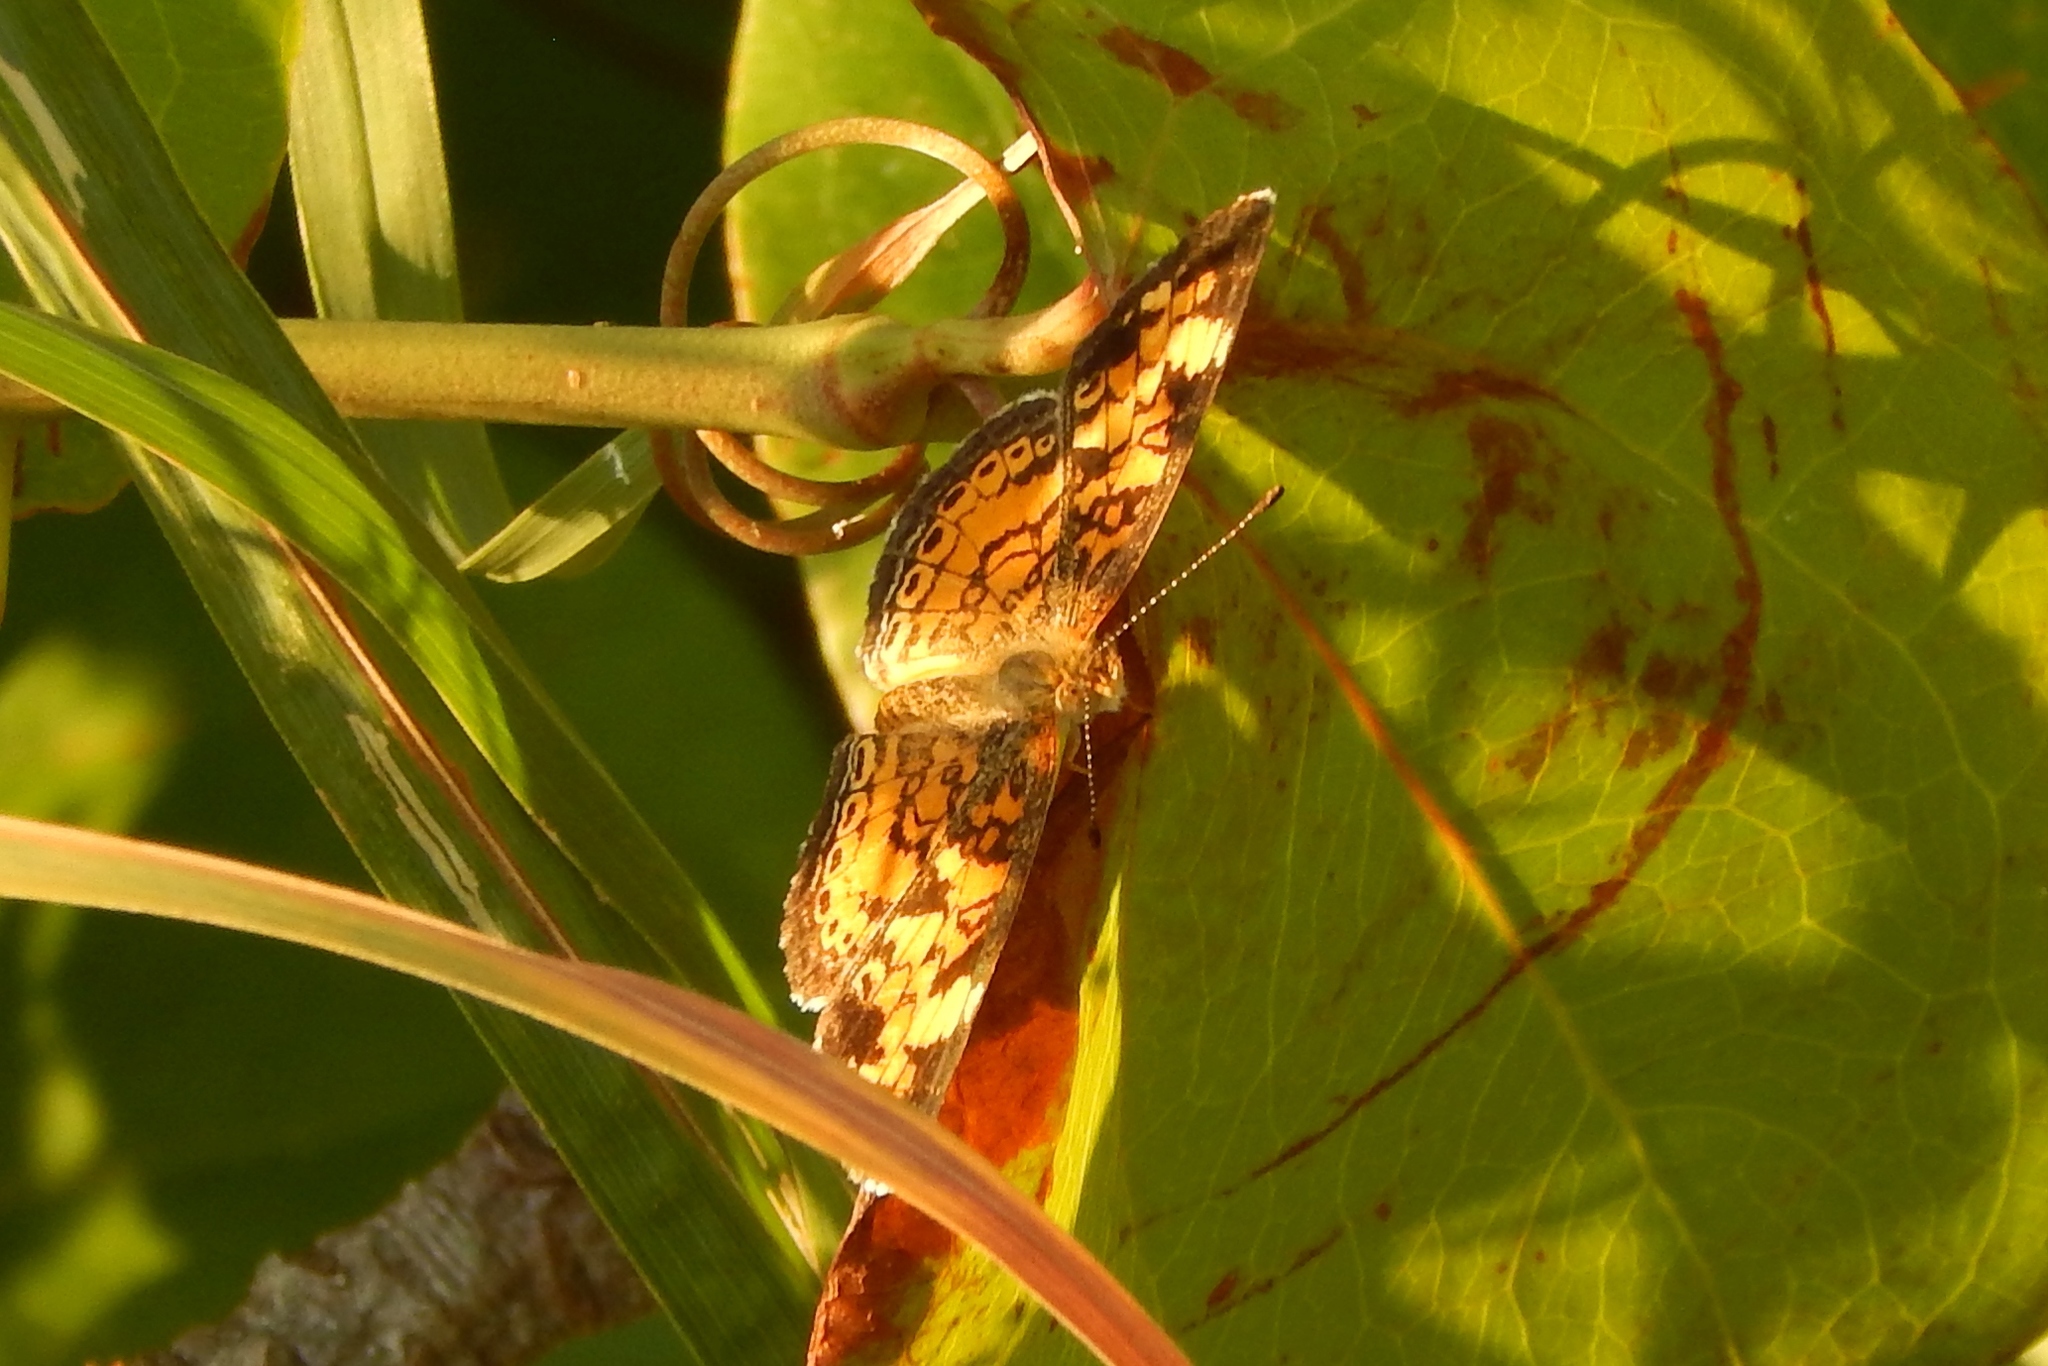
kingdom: Animalia
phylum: Arthropoda
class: Insecta
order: Lepidoptera
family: Nymphalidae
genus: Phyciodes
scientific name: Phyciodes tharos
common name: Pearl crescent
